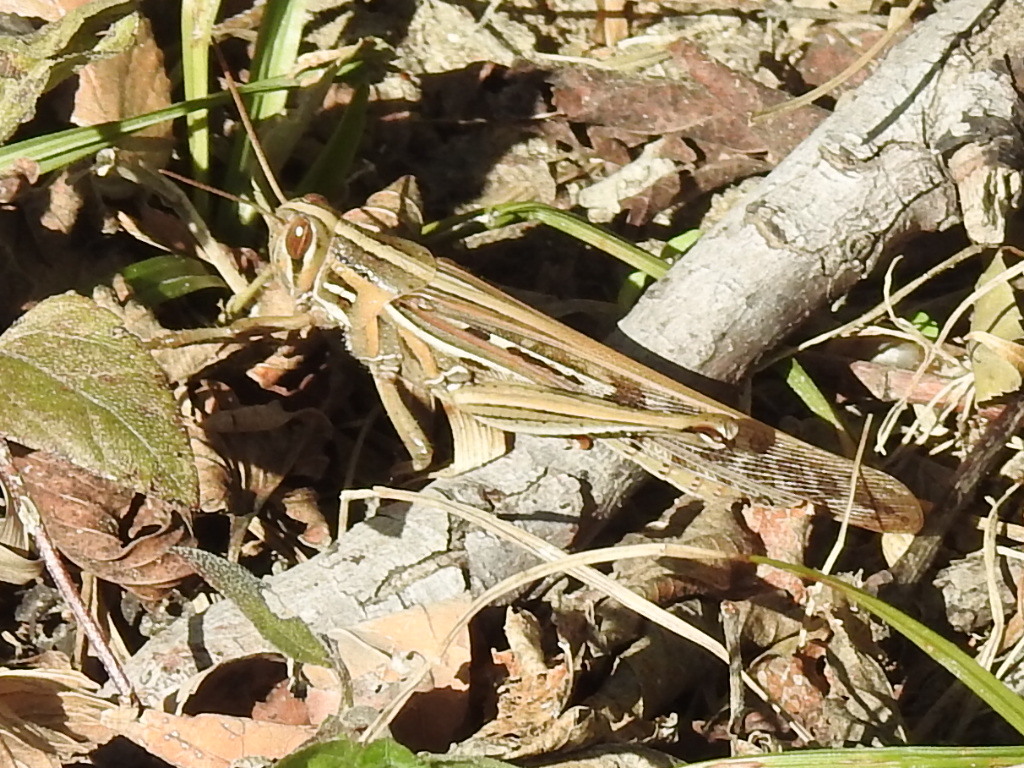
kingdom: Animalia
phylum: Arthropoda
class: Insecta
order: Orthoptera
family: Acrididae
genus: Schistocerca
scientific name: Schistocerca americana
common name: American bird locust
